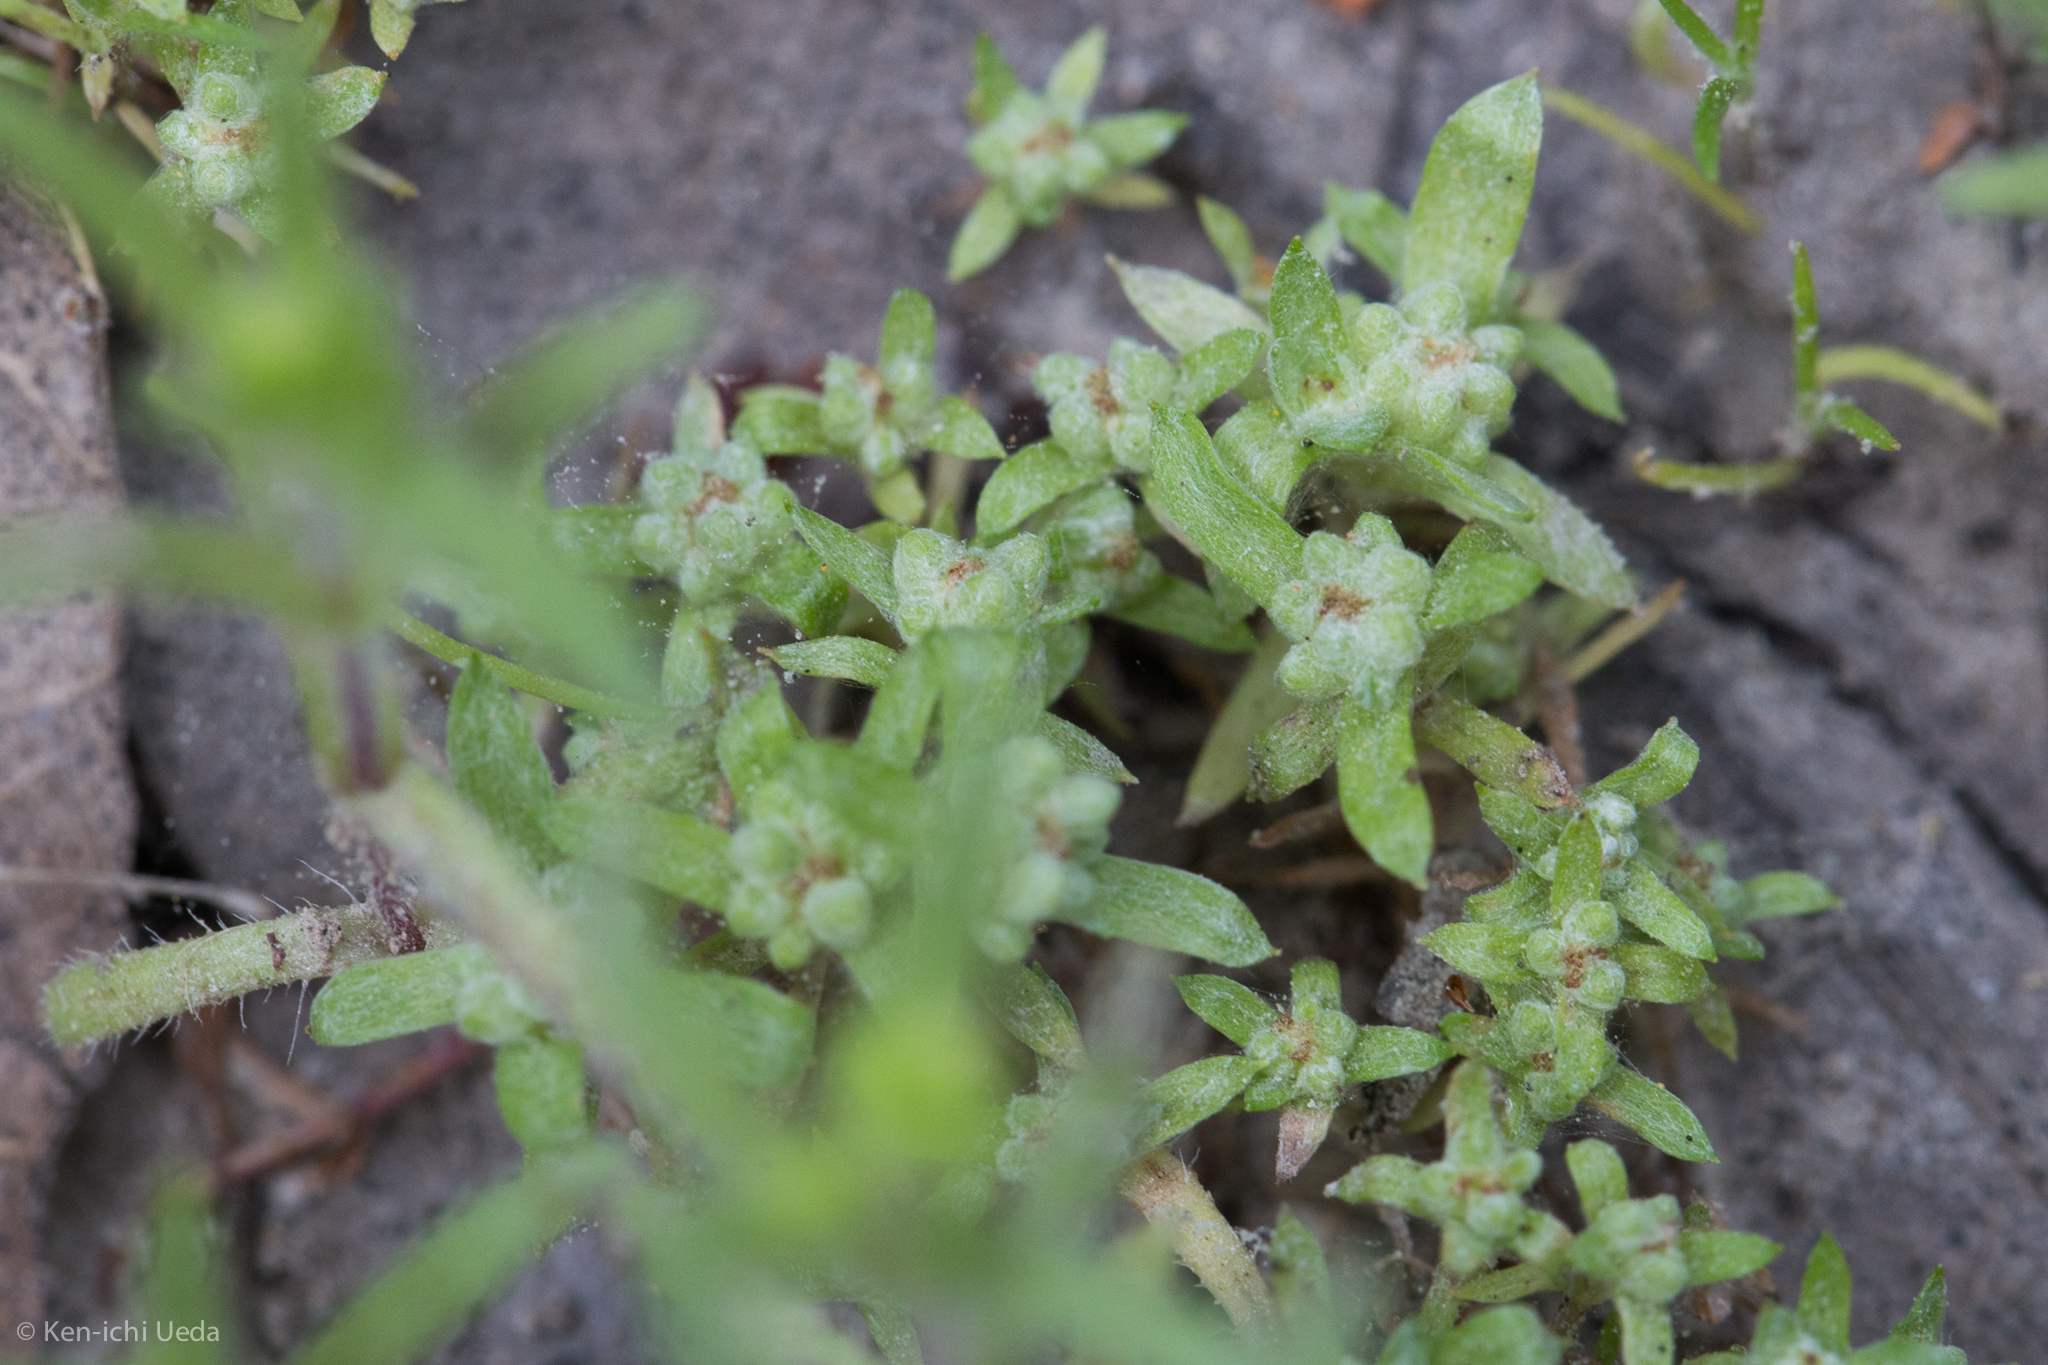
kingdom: Plantae
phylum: Tracheophyta
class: Magnoliopsida
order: Asterales
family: Asteraceae
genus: Psilocarphus
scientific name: Psilocarphus tenellus
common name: Slender woolly-marbles
